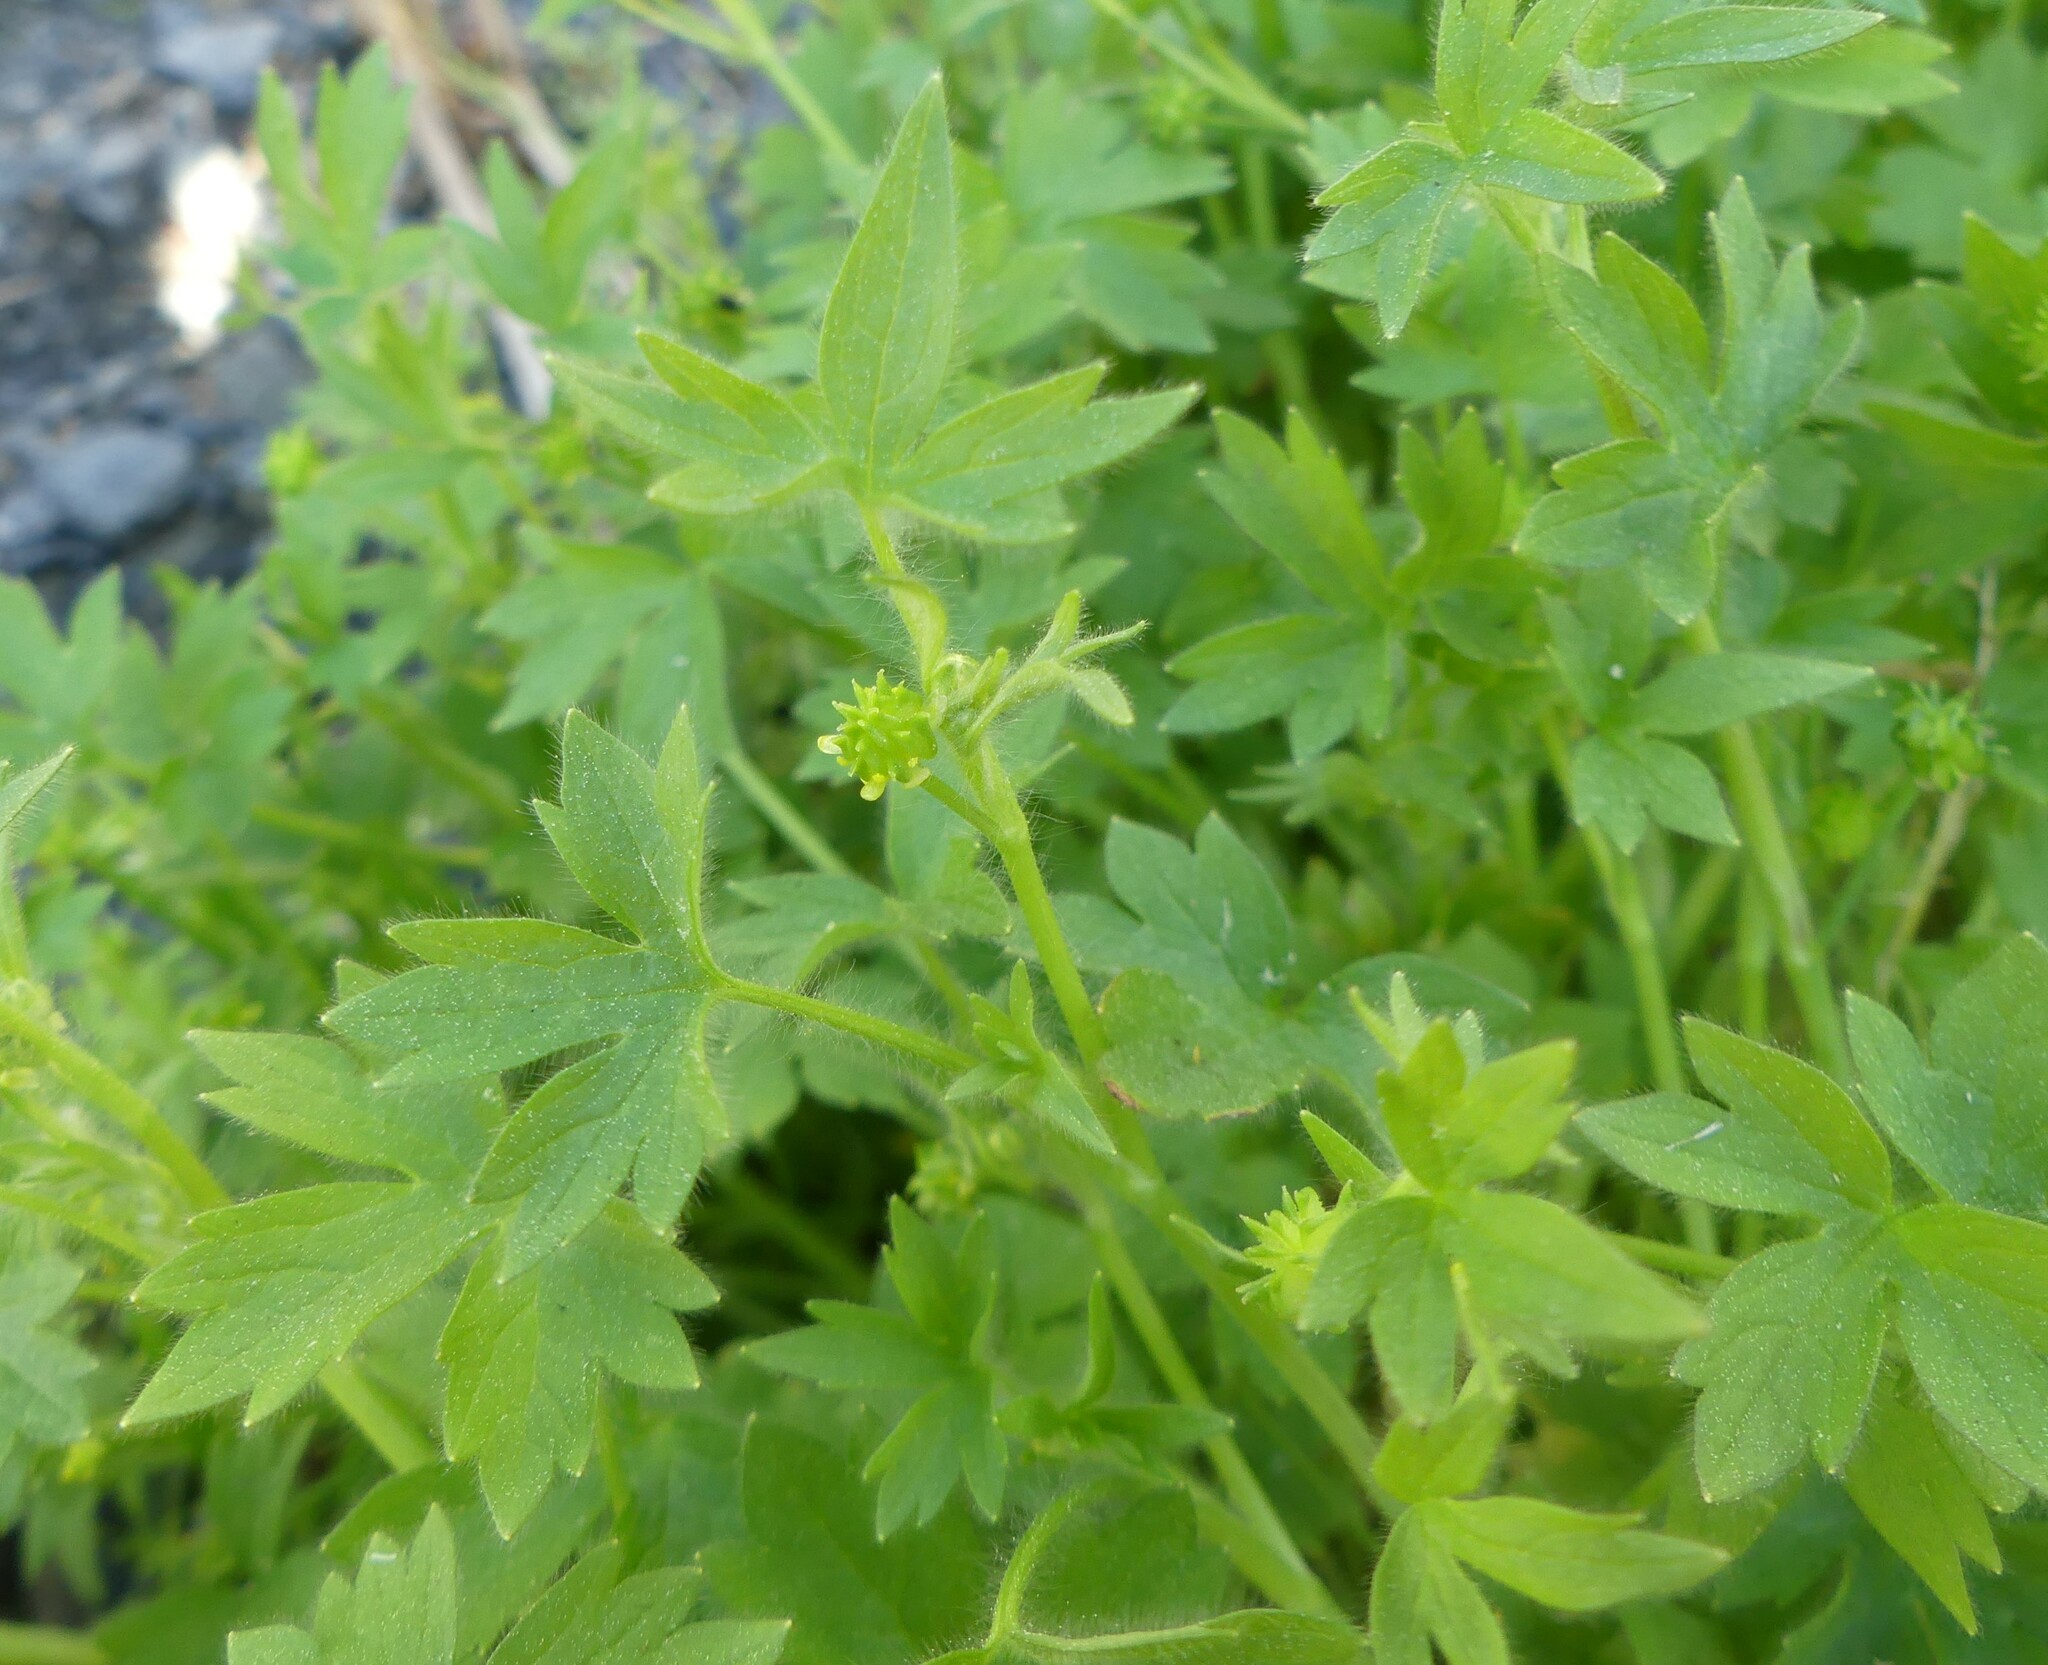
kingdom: Plantae
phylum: Tracheophyta
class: Magnoliopsida
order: Ranunculales
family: Ranunculaceae
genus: Ranunculus
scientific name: Ranunculus parviflorus
